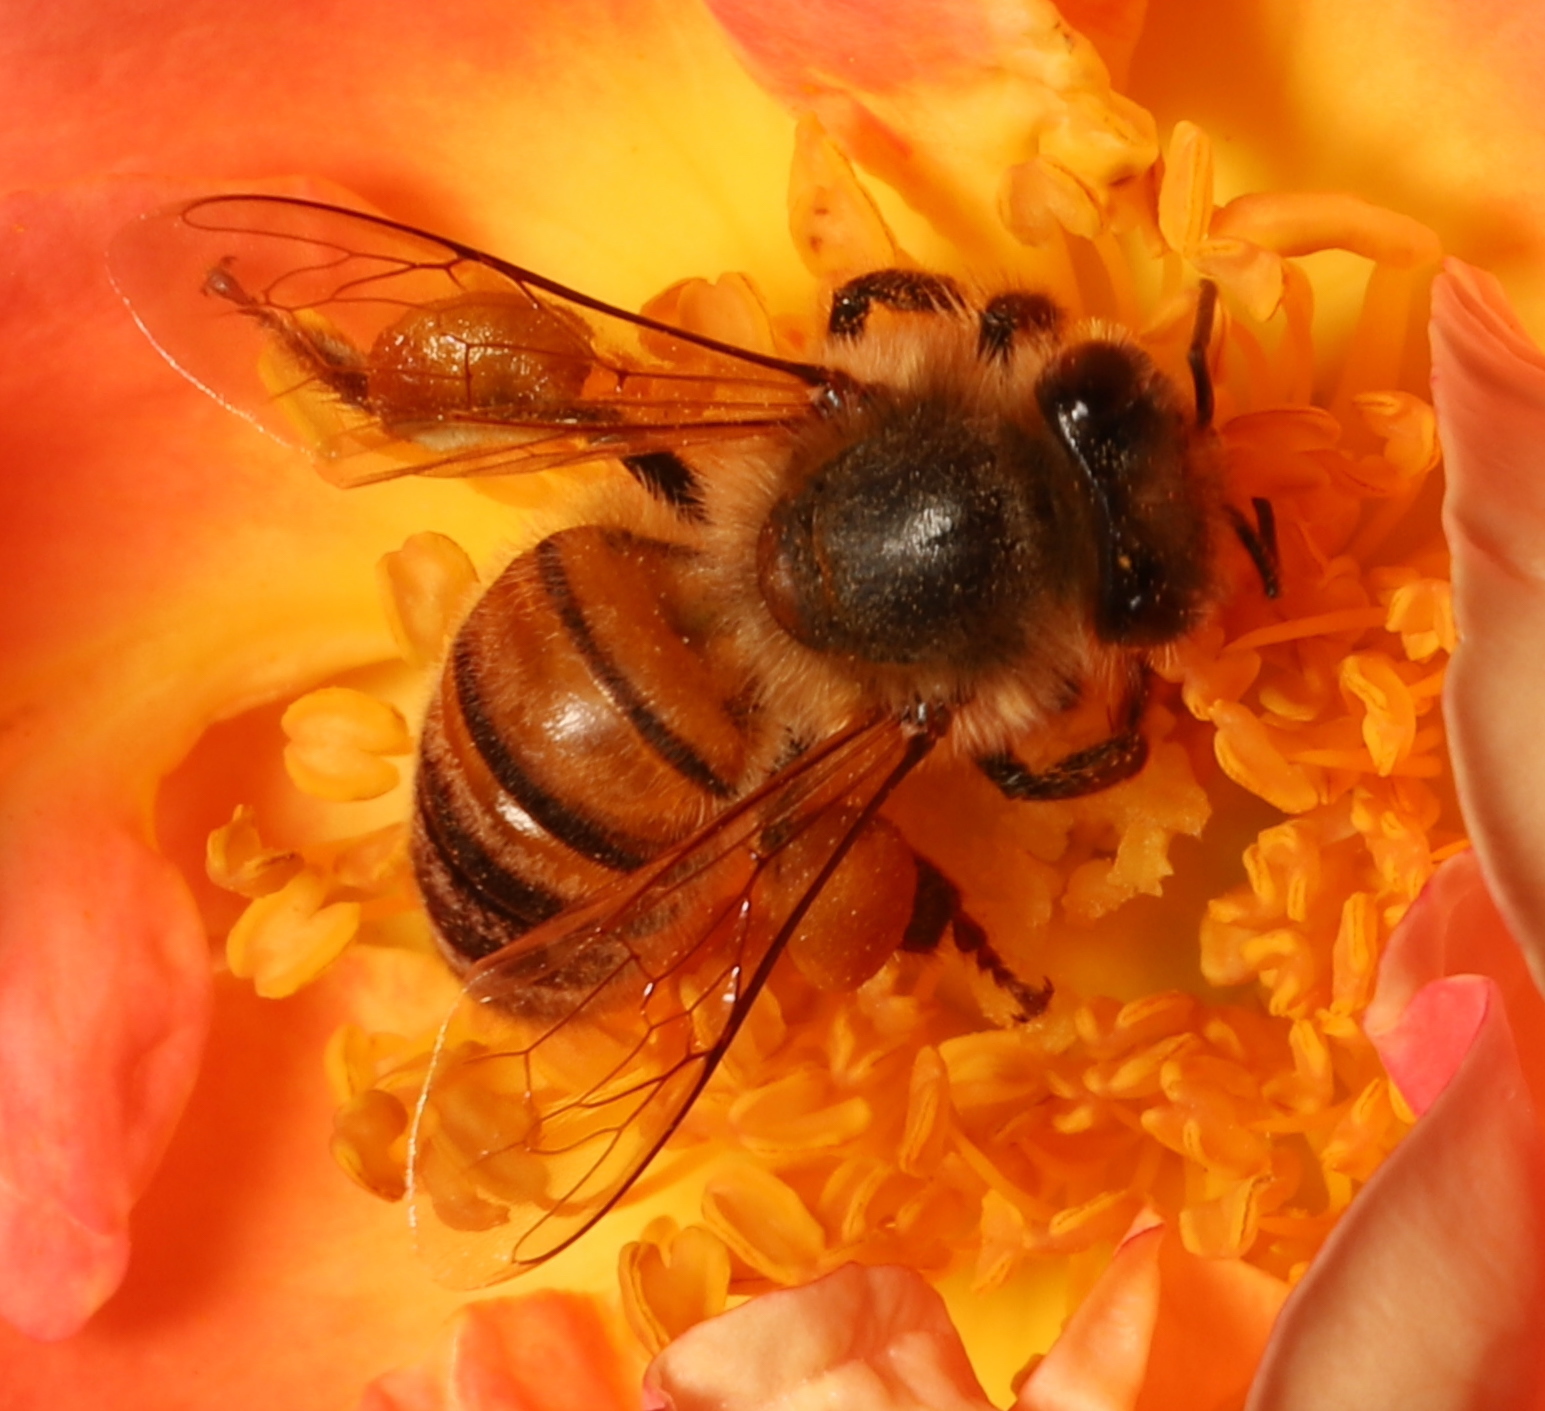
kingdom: Animalia
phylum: Arthropoda
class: Insecta
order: Hymenoptera
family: Apidae
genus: Apis
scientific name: Apis mellifera
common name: Honey bee
